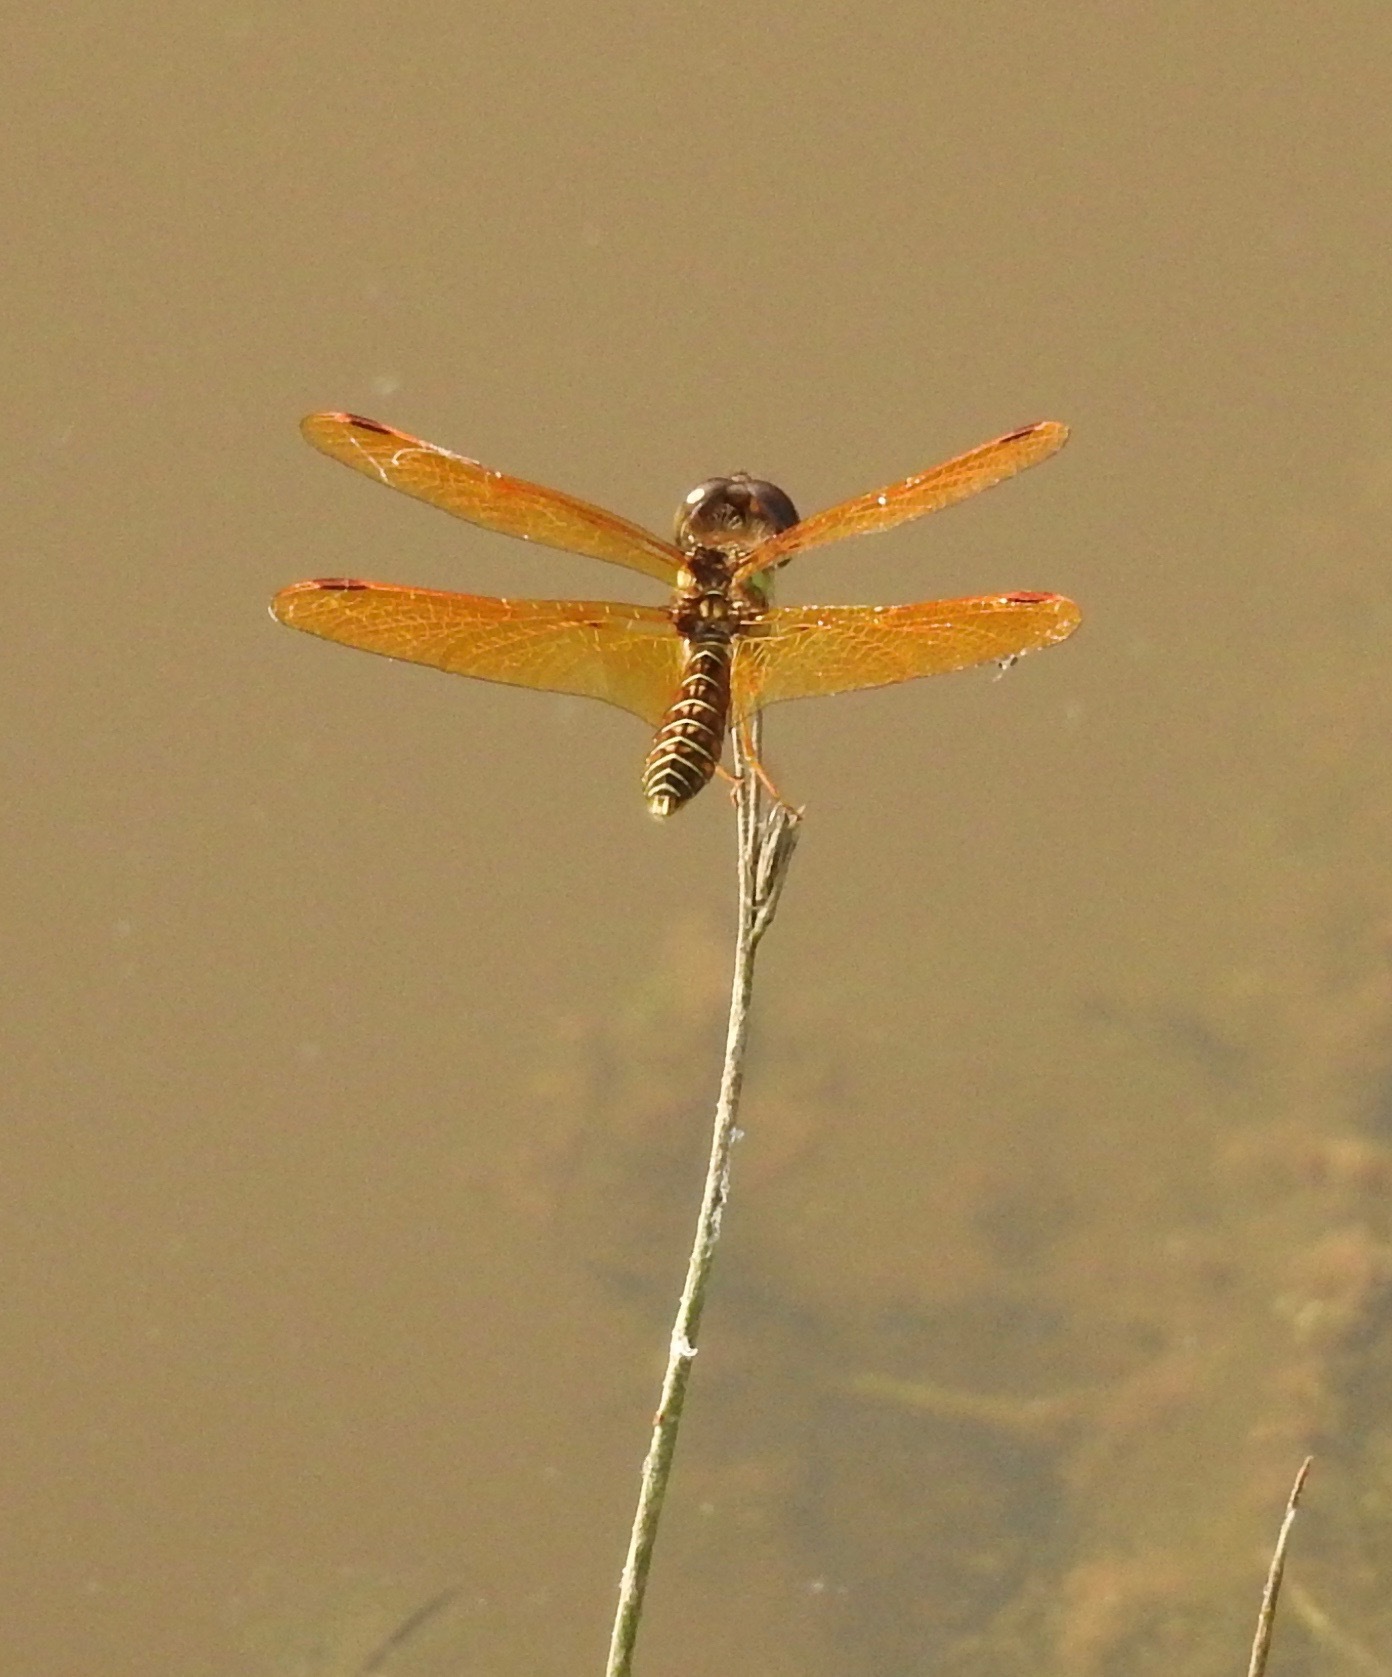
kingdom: Animalia
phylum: Arthropoda
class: Insecta
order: Odonata
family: Libellulidae
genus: Perithemis
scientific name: Perithemis tenera
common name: Eastern amberwing
